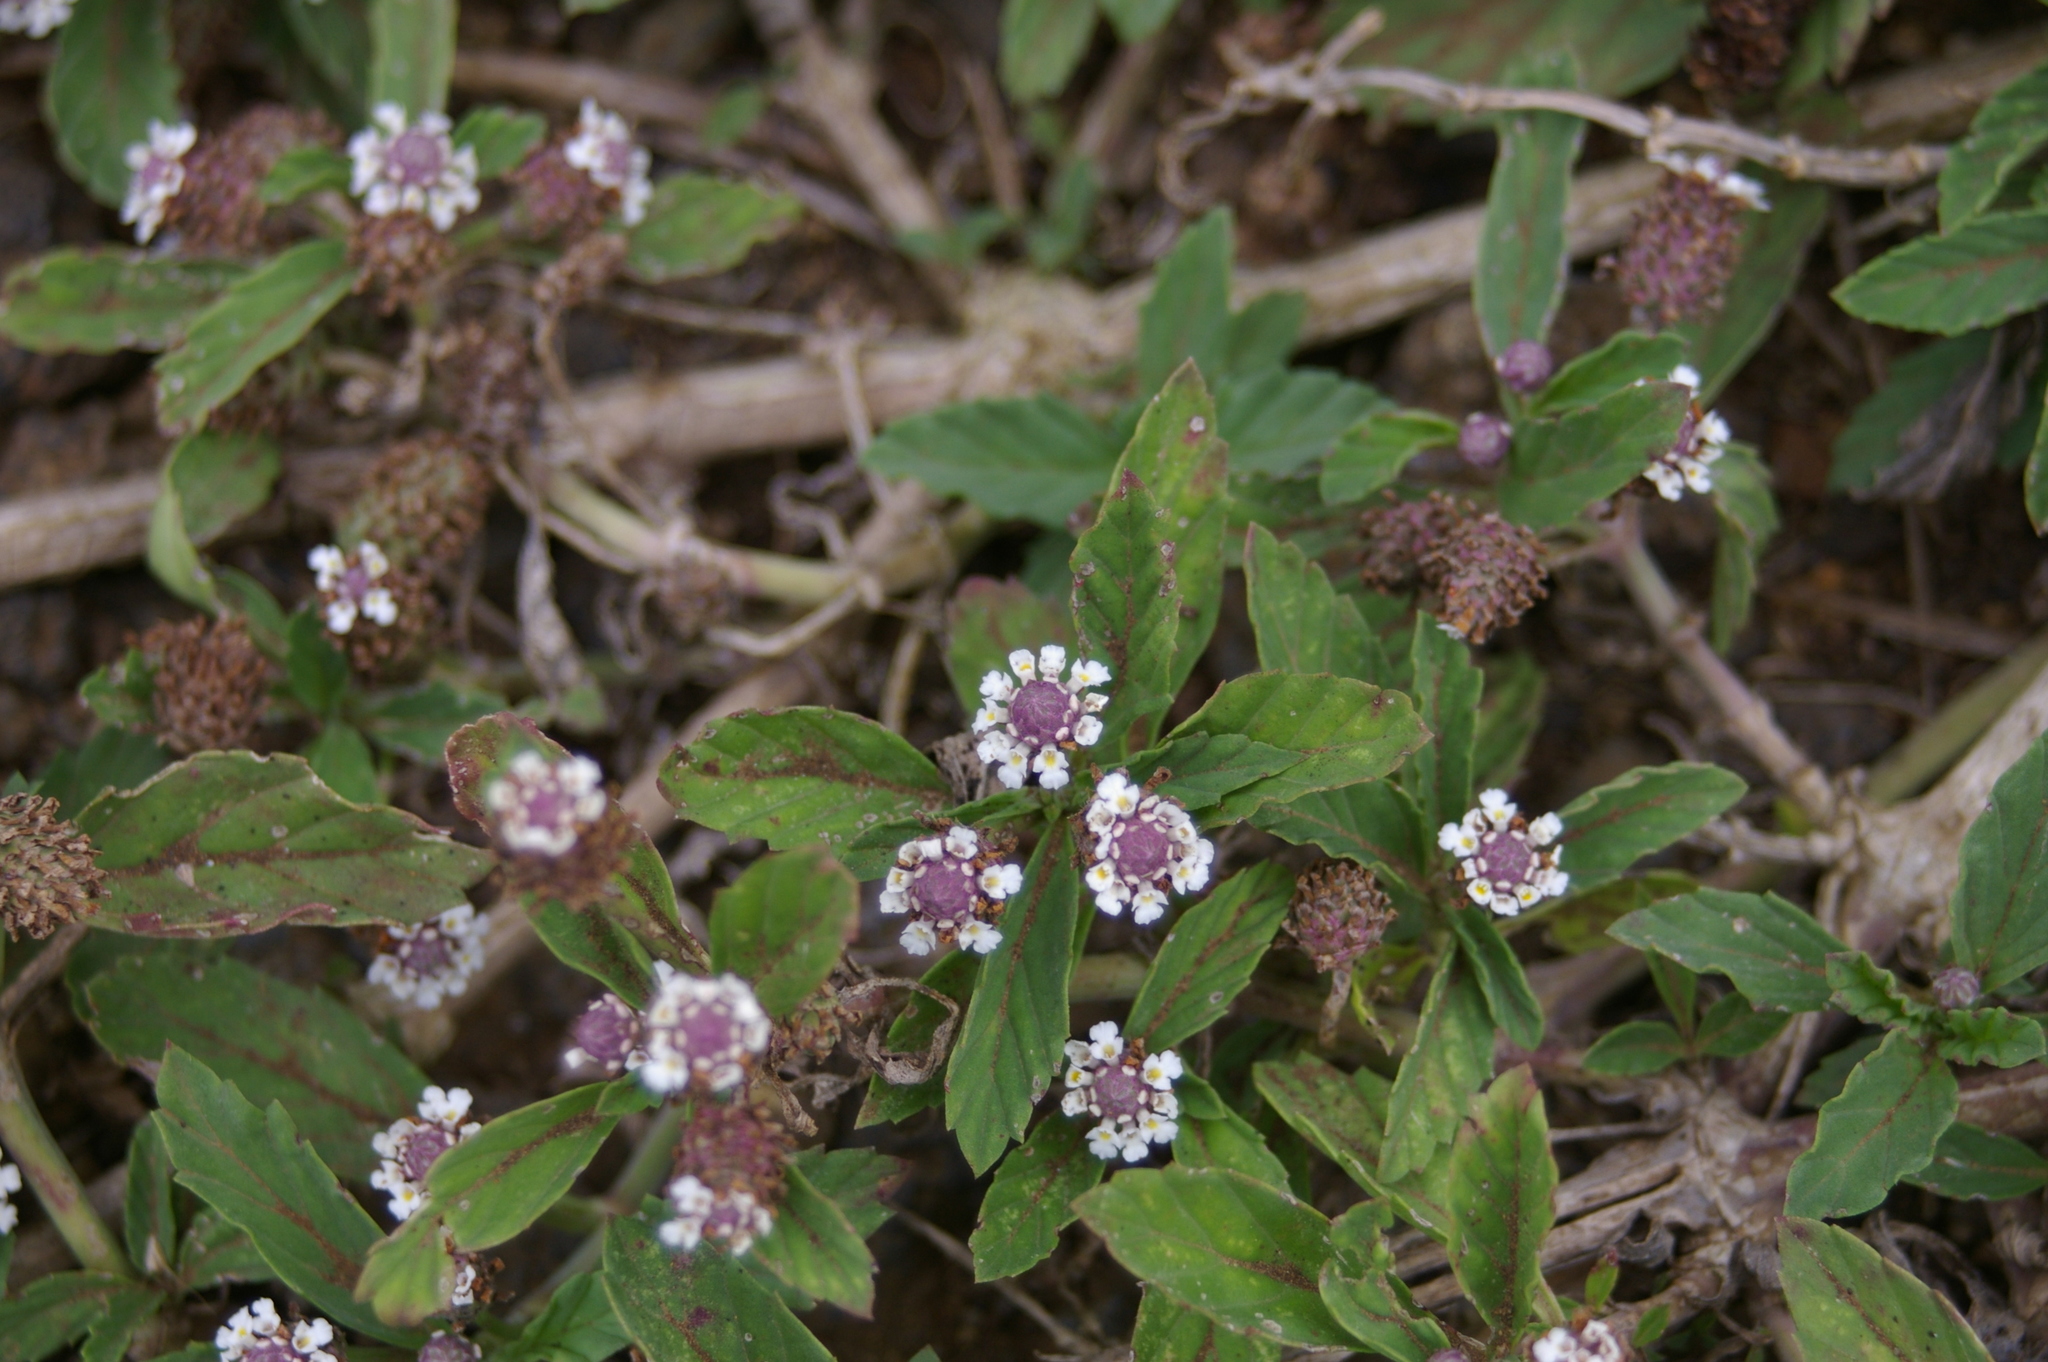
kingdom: Plantae
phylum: Tracheophyta
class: Magnoliopsida
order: Lamiales
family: Verbenaceae
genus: Phyla
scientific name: Phyla nodiflora
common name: Frogfruit
